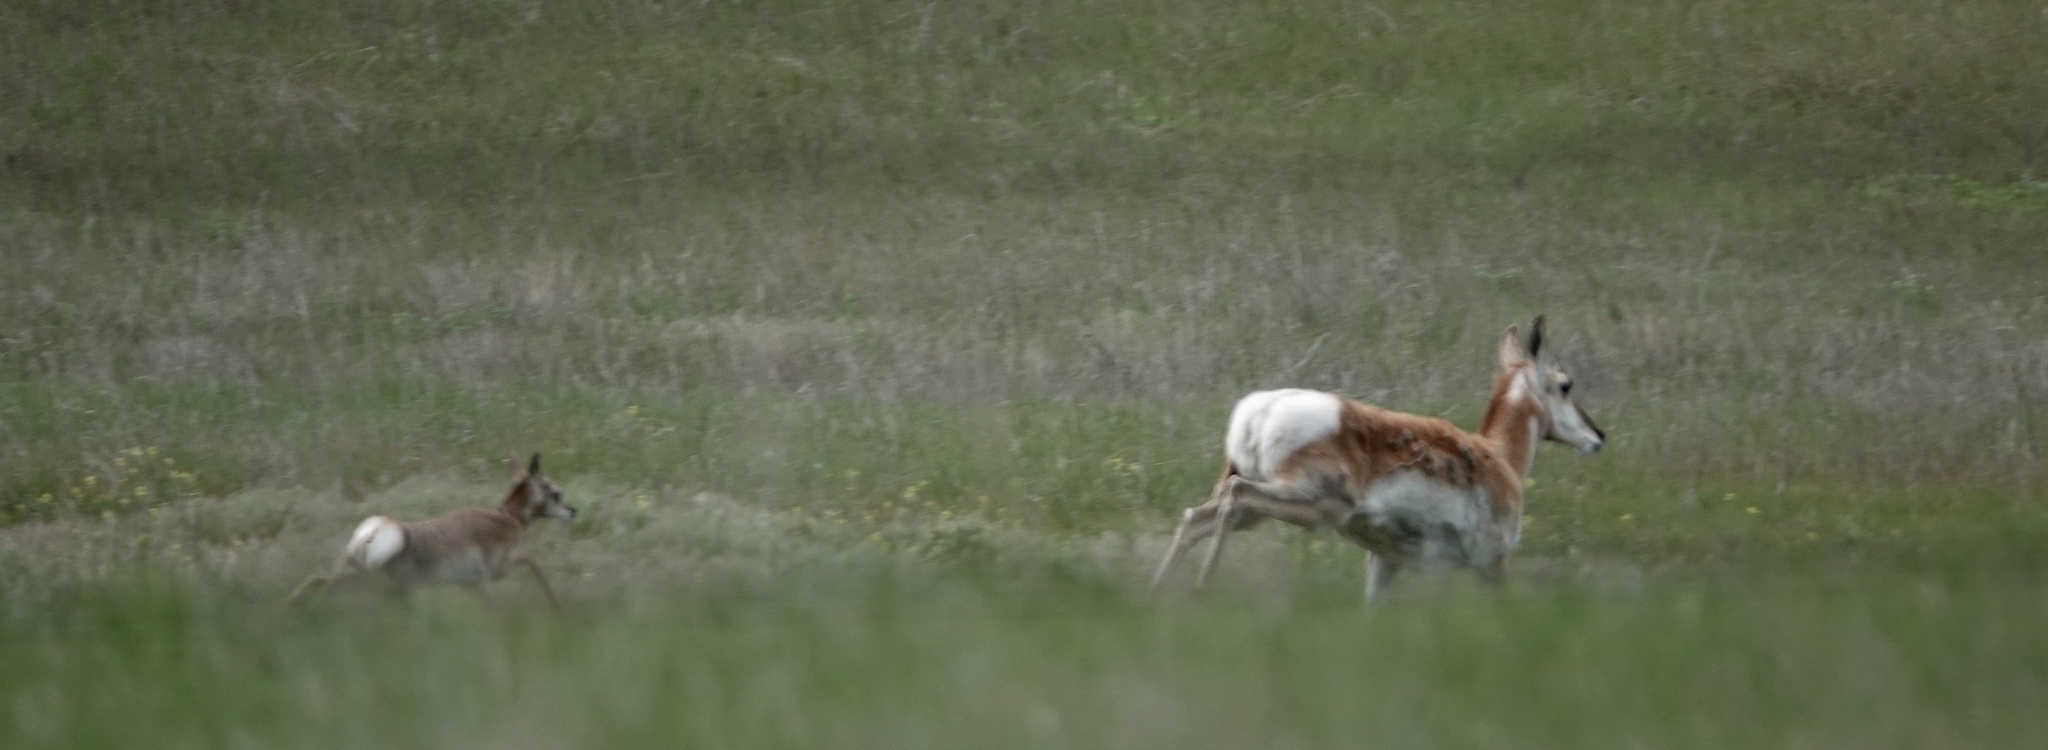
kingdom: Animalia
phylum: Chordata
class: Mammalia
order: Artiodactyla
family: Antilocapridae
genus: Antilocapra
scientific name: Antilocapra americana
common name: Pronghorn
